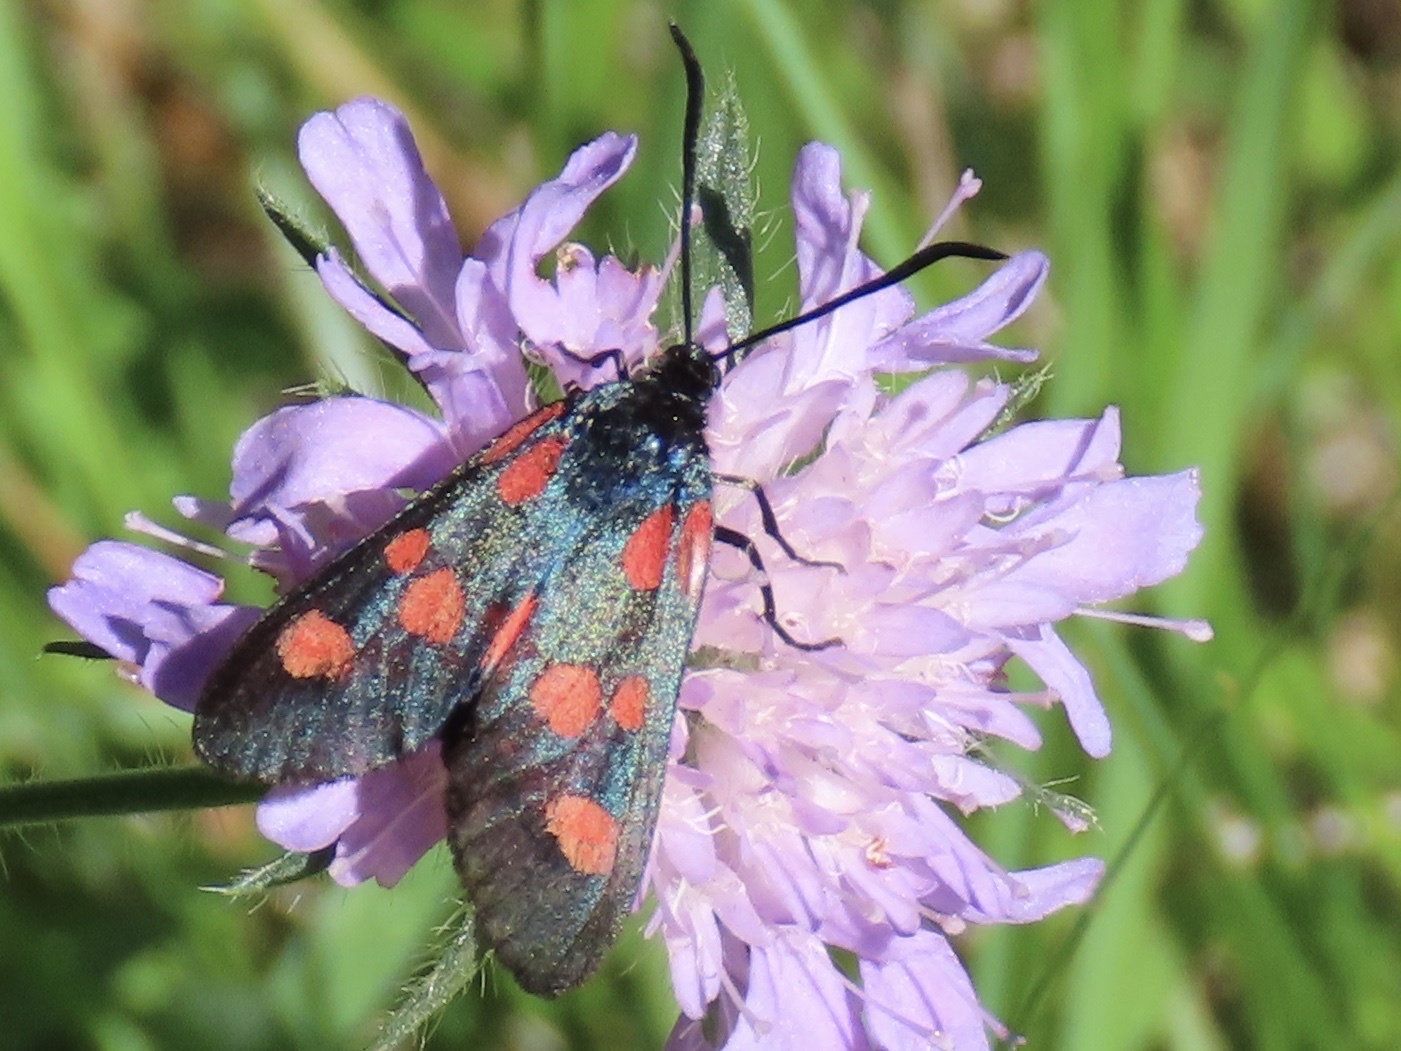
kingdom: Animalia
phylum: Arthropoda
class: Insecta
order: Lepidoptera
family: Zygaenidae
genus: Zygaena
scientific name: Zygaena lonicerae
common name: Narrow-bordered five-spot burnet
